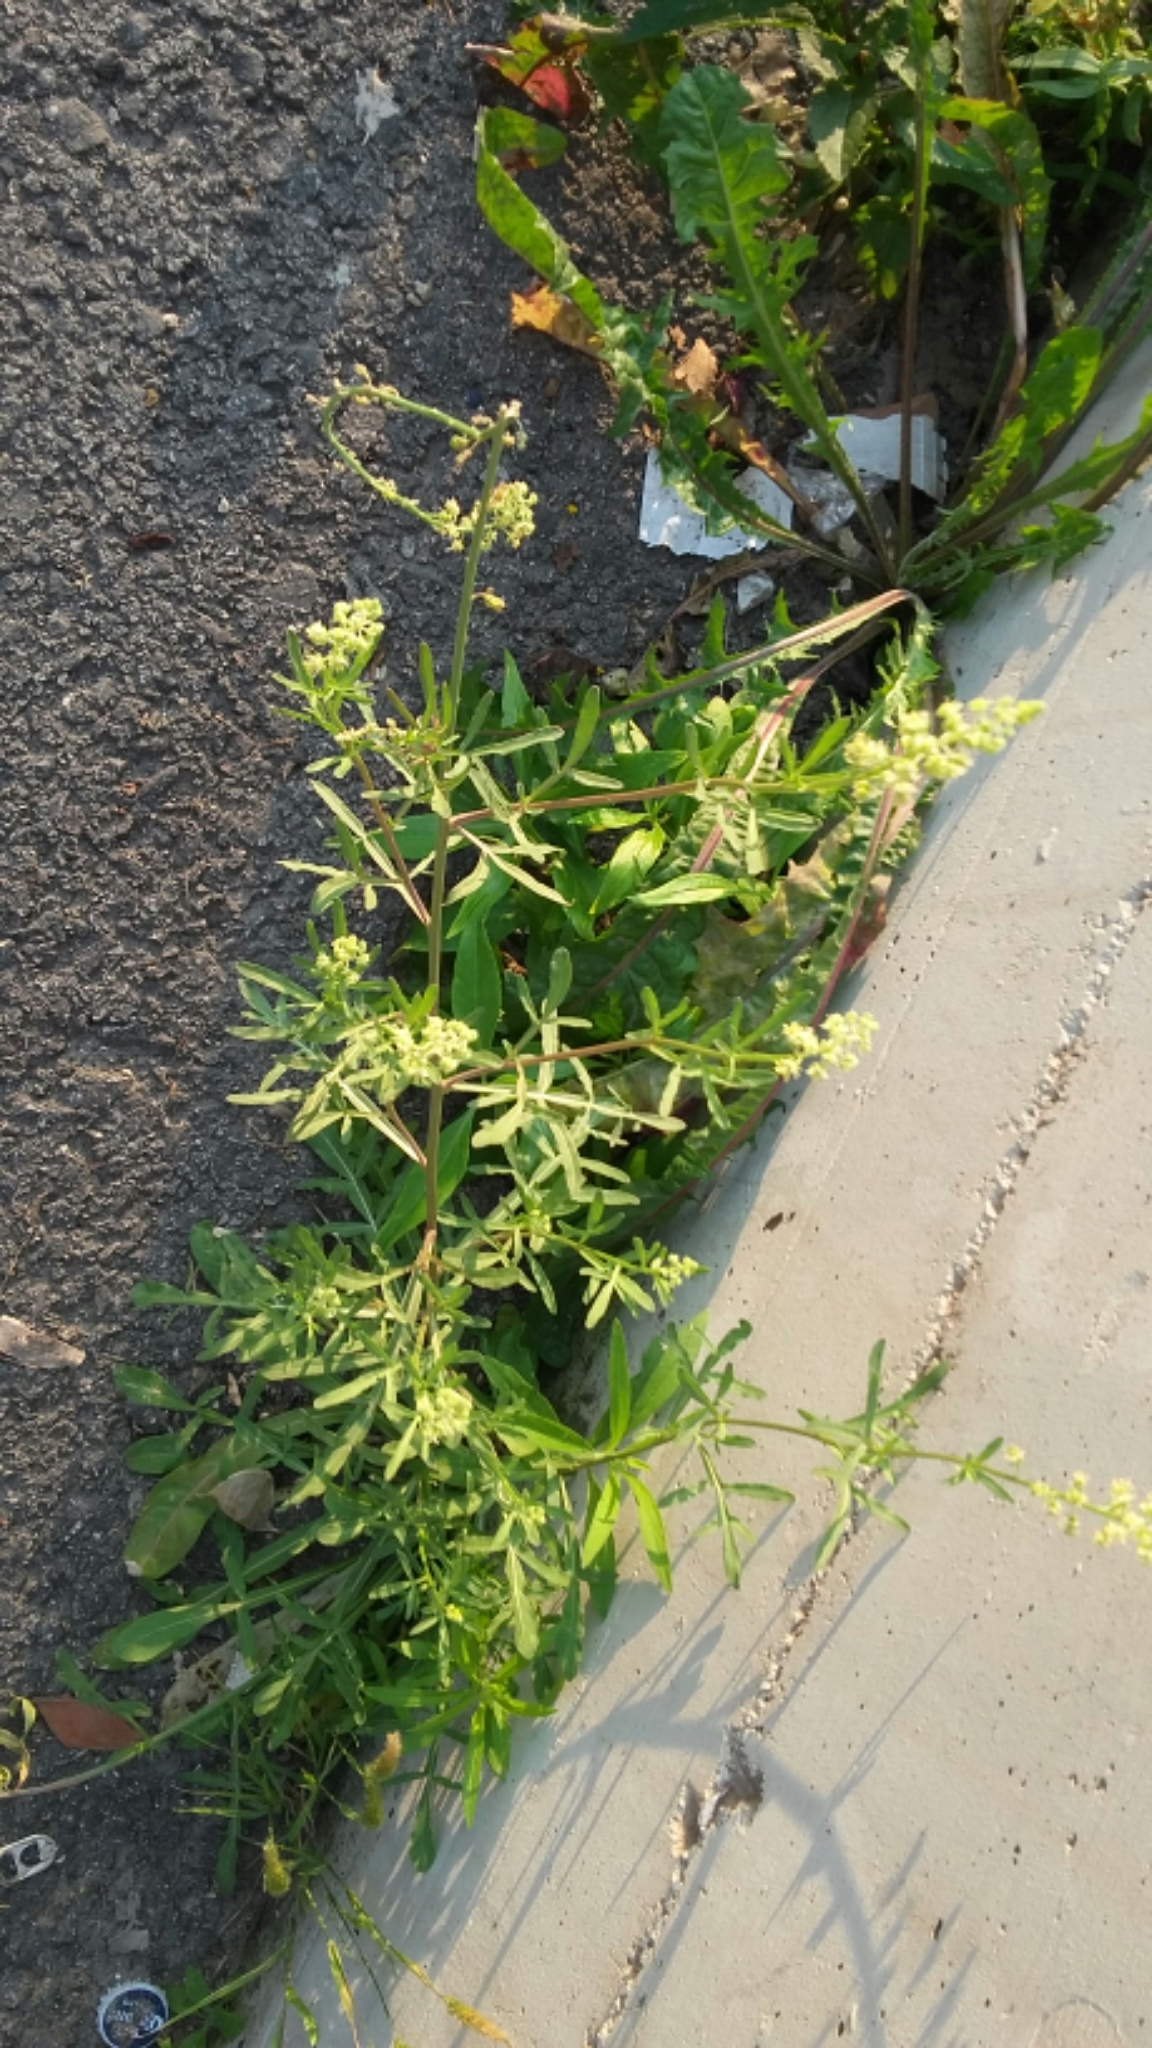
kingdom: Plantae
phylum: Tracheophyta
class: Magnoliopsida
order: Brassicales
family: Resedaceae
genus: Reseda
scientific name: Reseda lutea
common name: Wild mignonette
